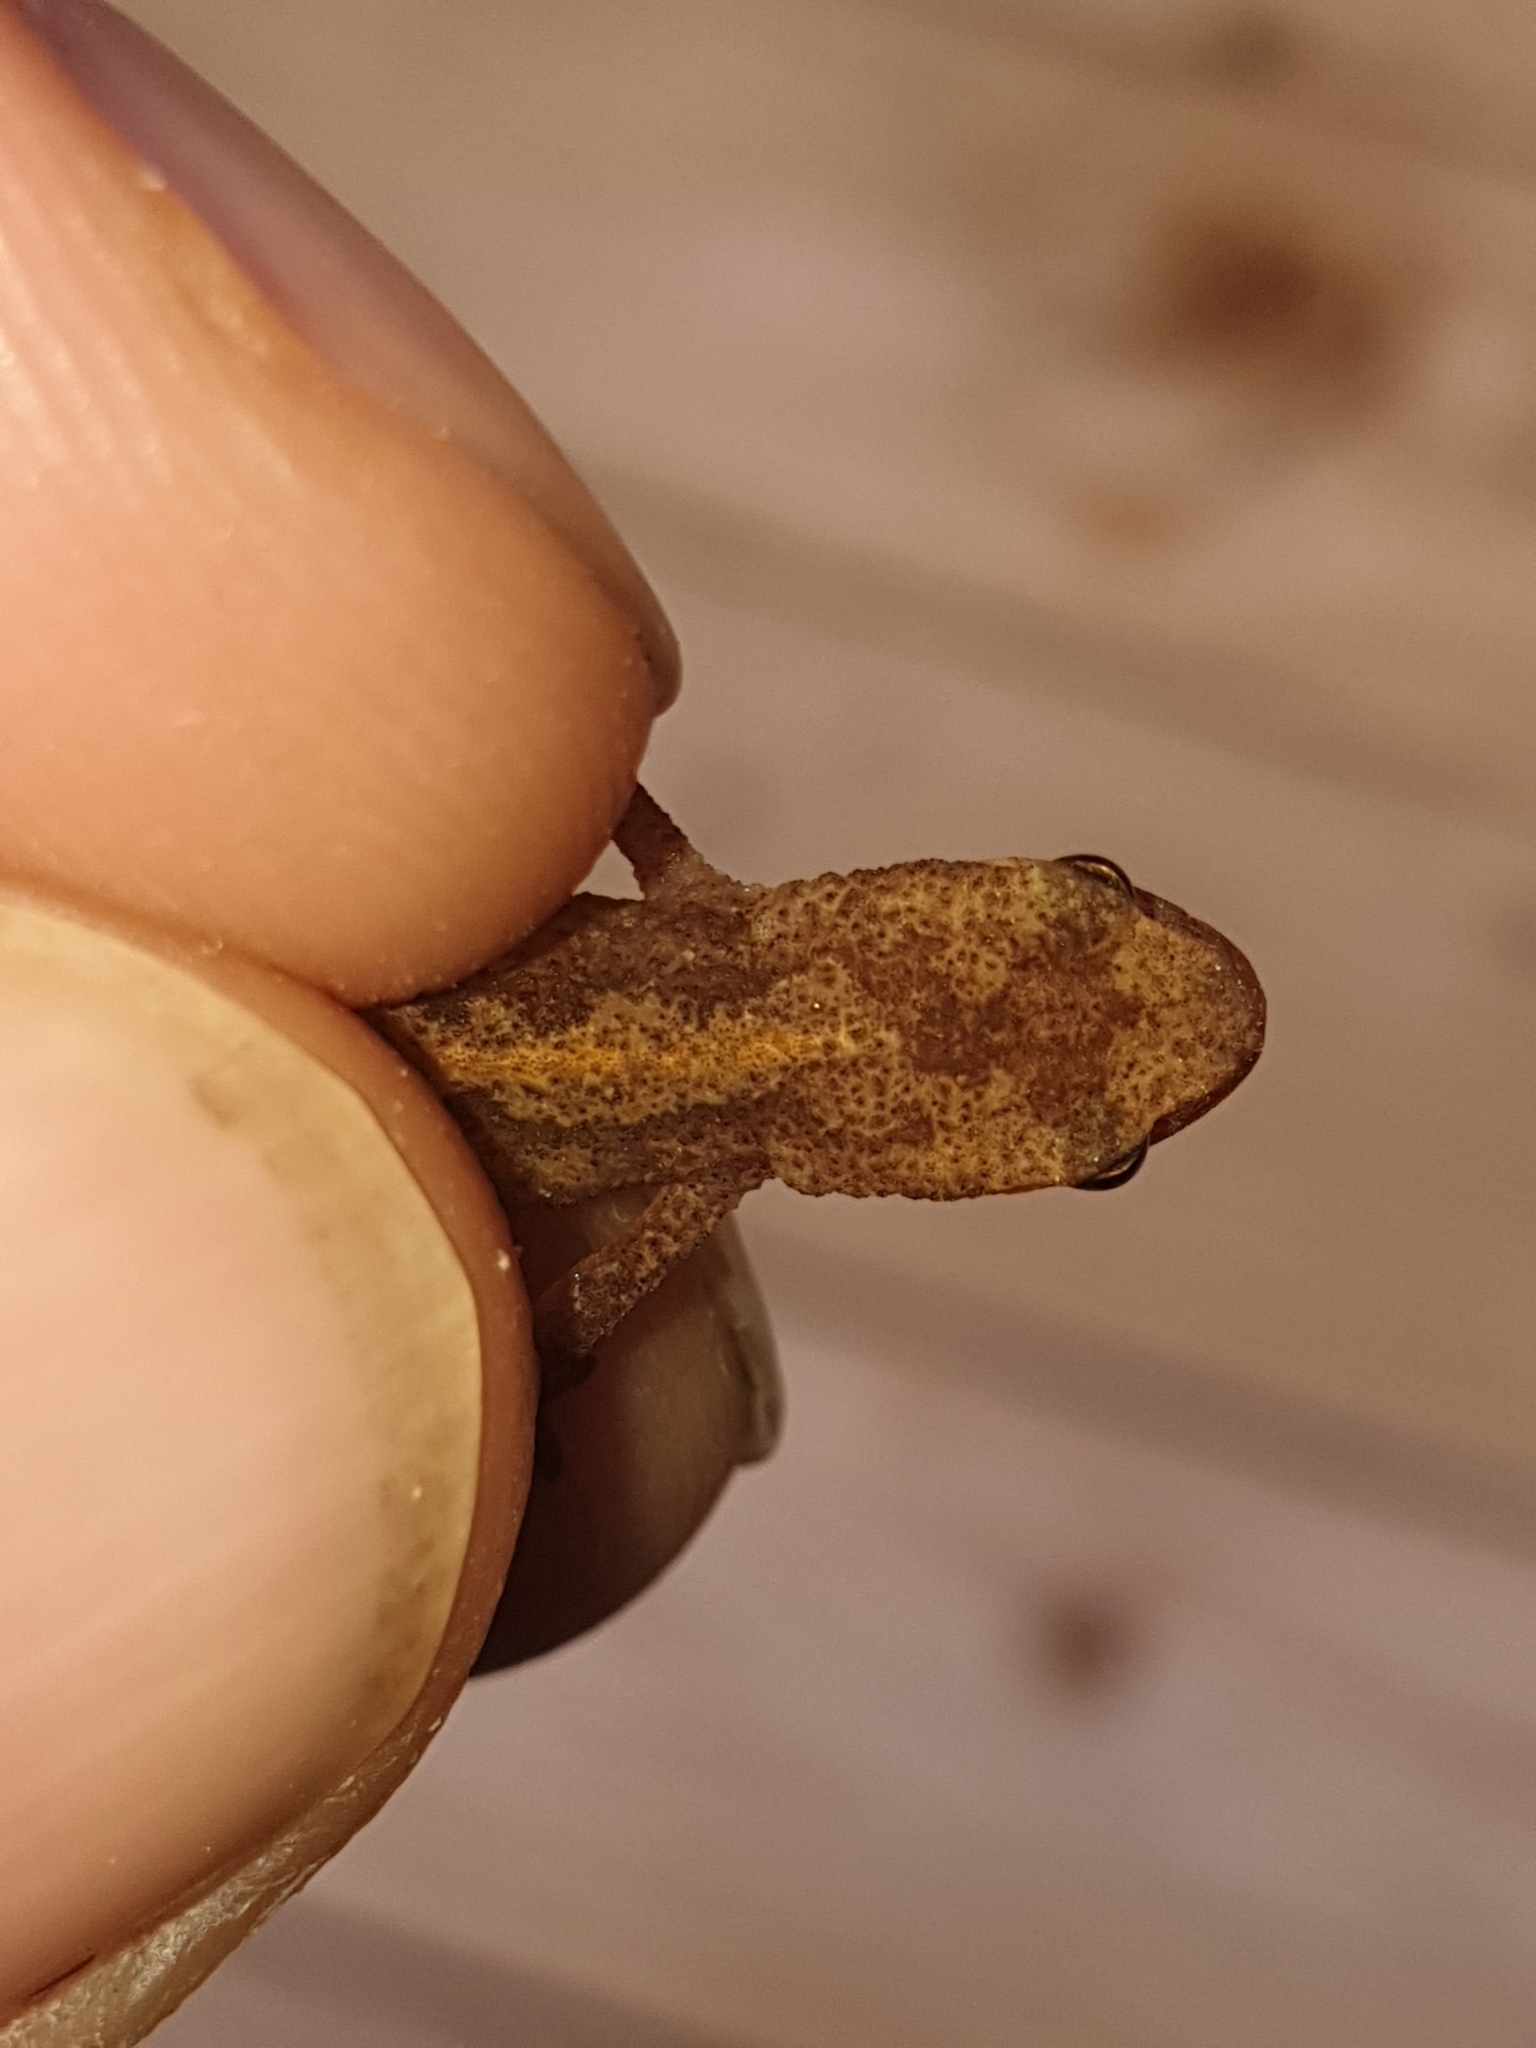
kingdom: Animalia
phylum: Chordata
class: Amphibia
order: Caudata
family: Salamandridae
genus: Lissotriton
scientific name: Lissotriton vulgaris
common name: Smooth newt
